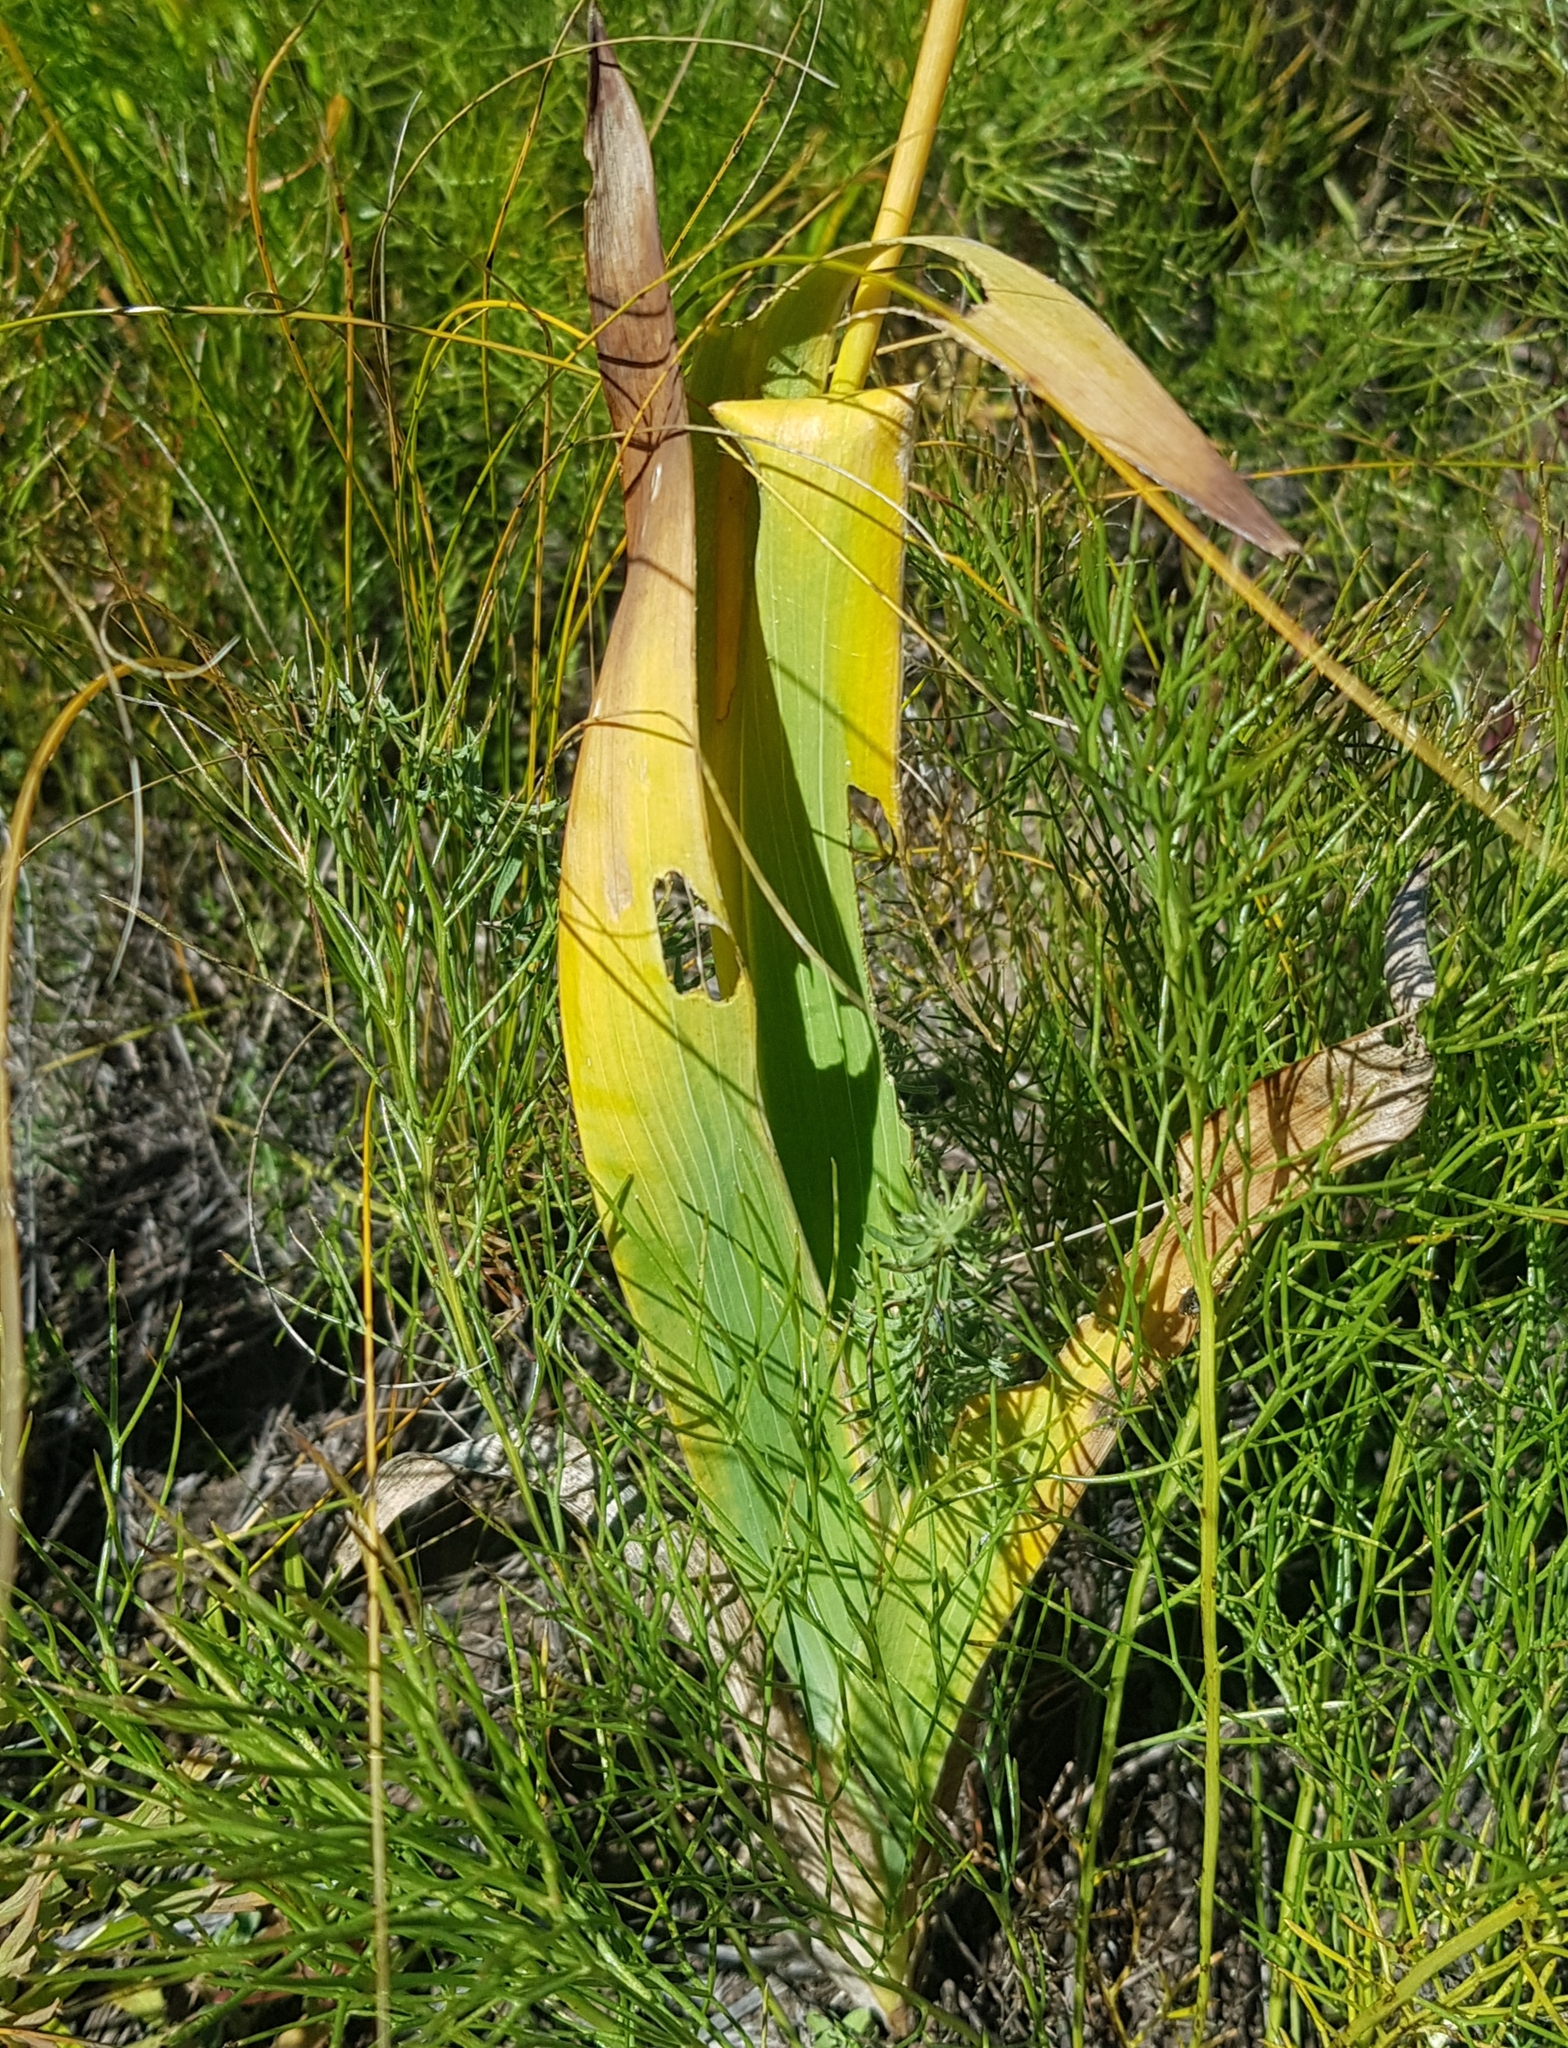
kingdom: Plantae
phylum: Tracheophyta
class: Liliopsida
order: Asparagales
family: Iridaceae
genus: Iris
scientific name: Iris dichotoma
